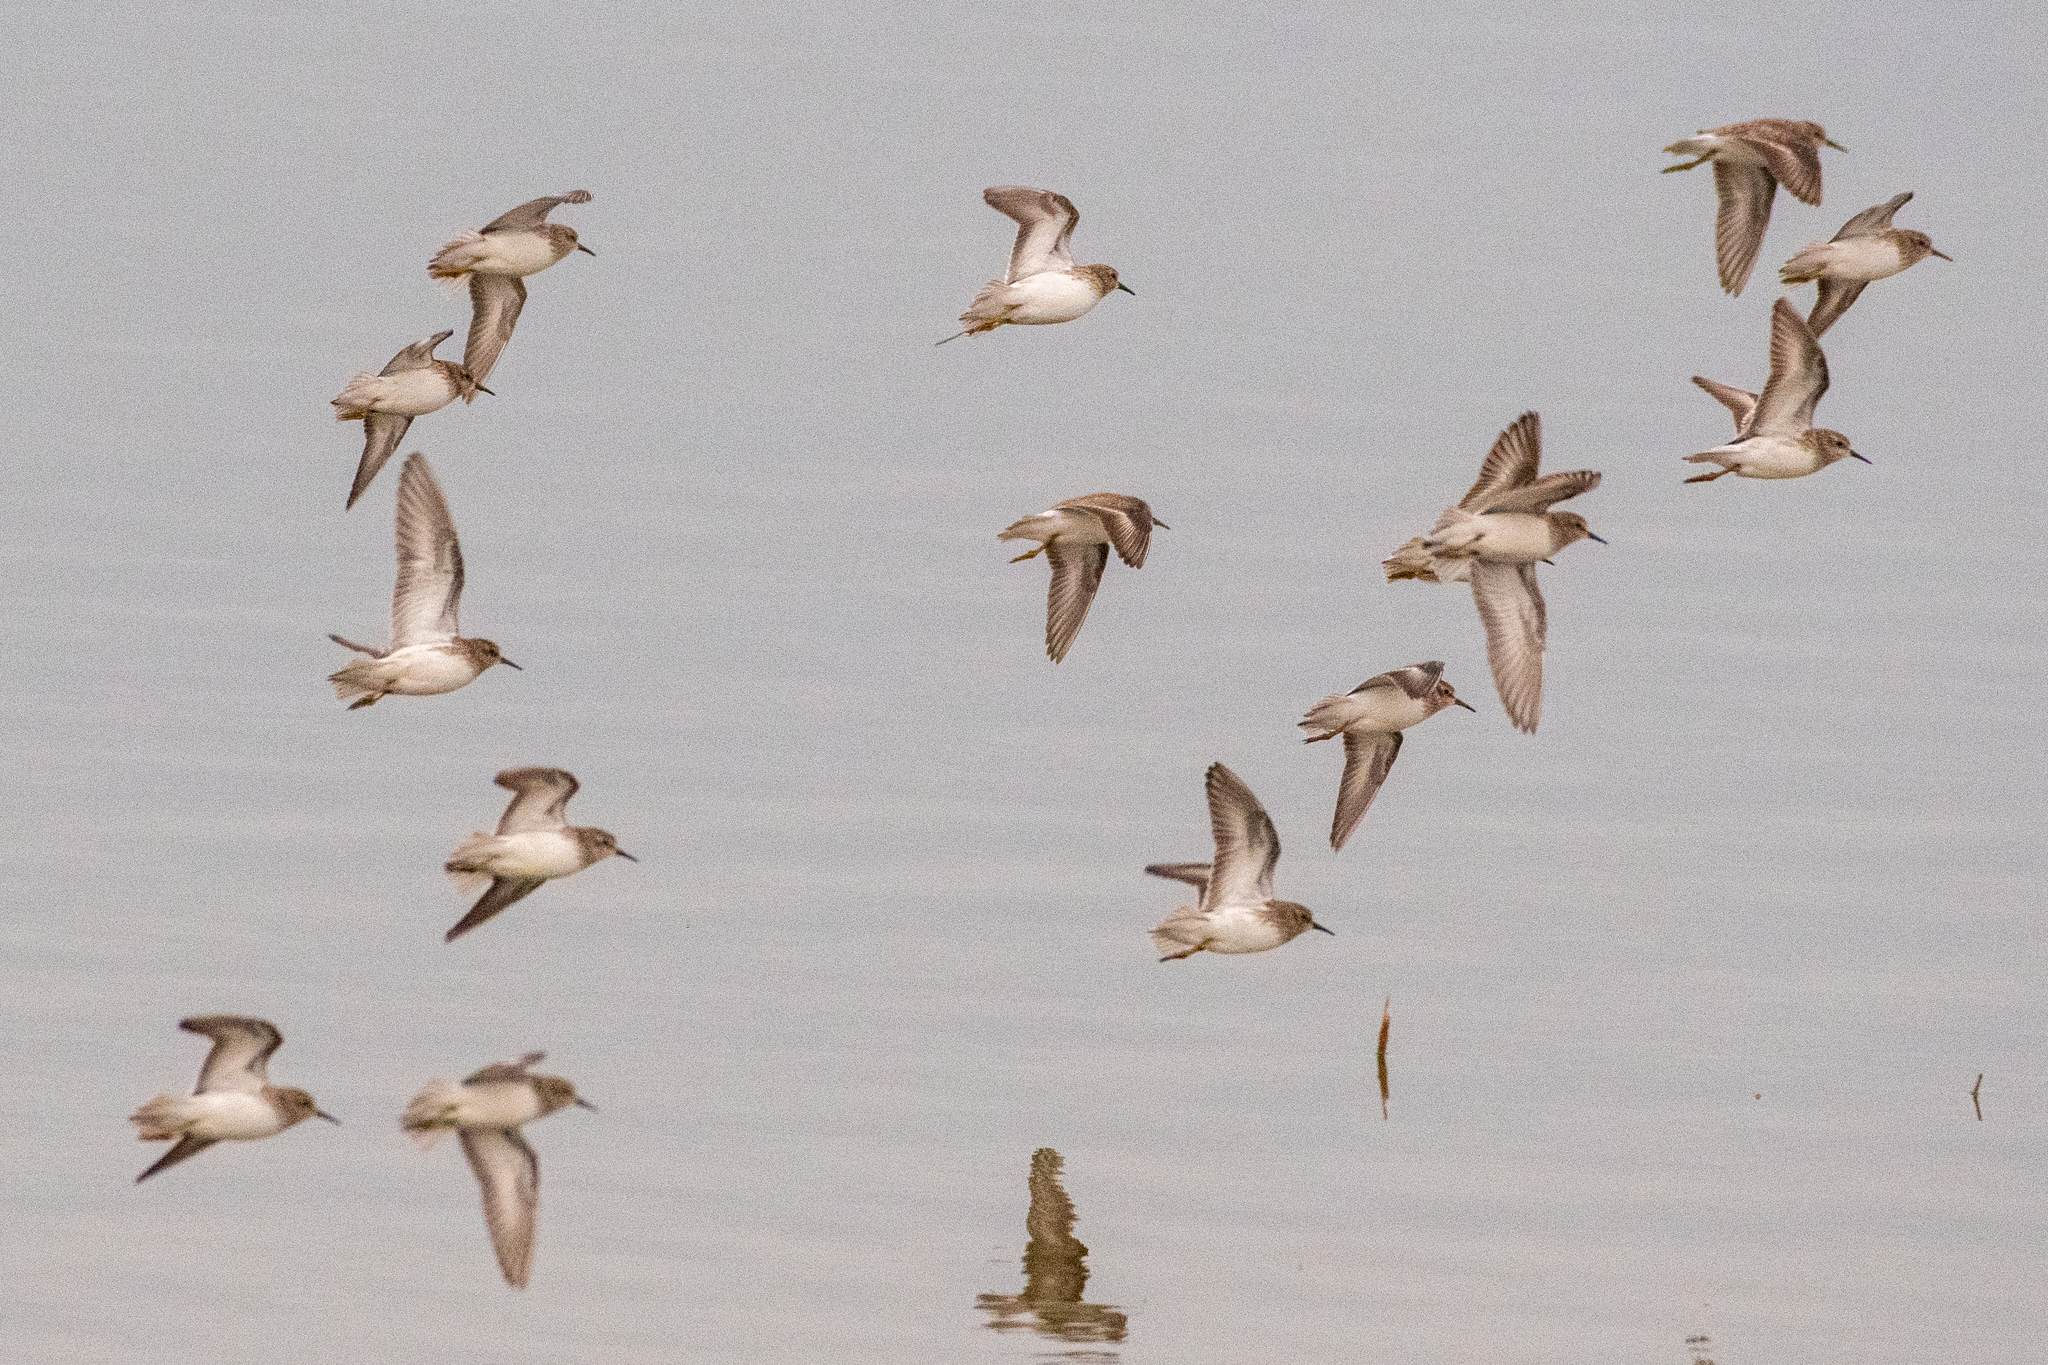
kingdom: Animalia
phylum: Chordata
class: Aves
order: Charadriiformes
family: Scolopacidae
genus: Calidris
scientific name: Calidris minutilla
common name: Least sandpiper
